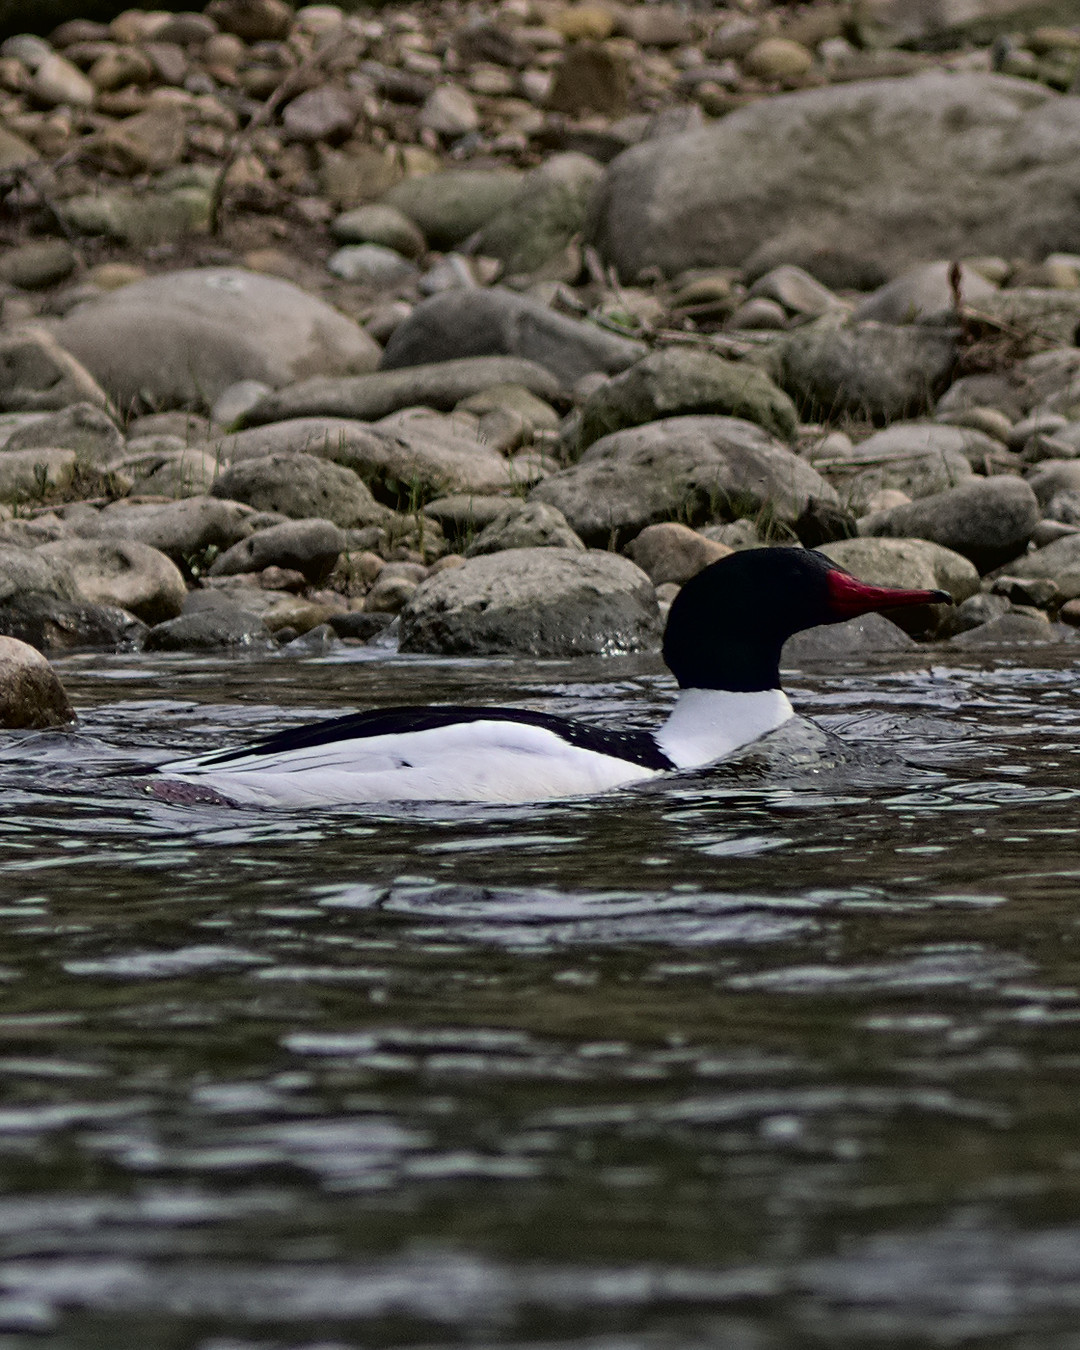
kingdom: Animalia
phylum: Chordata
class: Aves
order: Anseriformes
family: Anatidae
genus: Mergus
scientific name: Mergus merganser
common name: Common merganser
